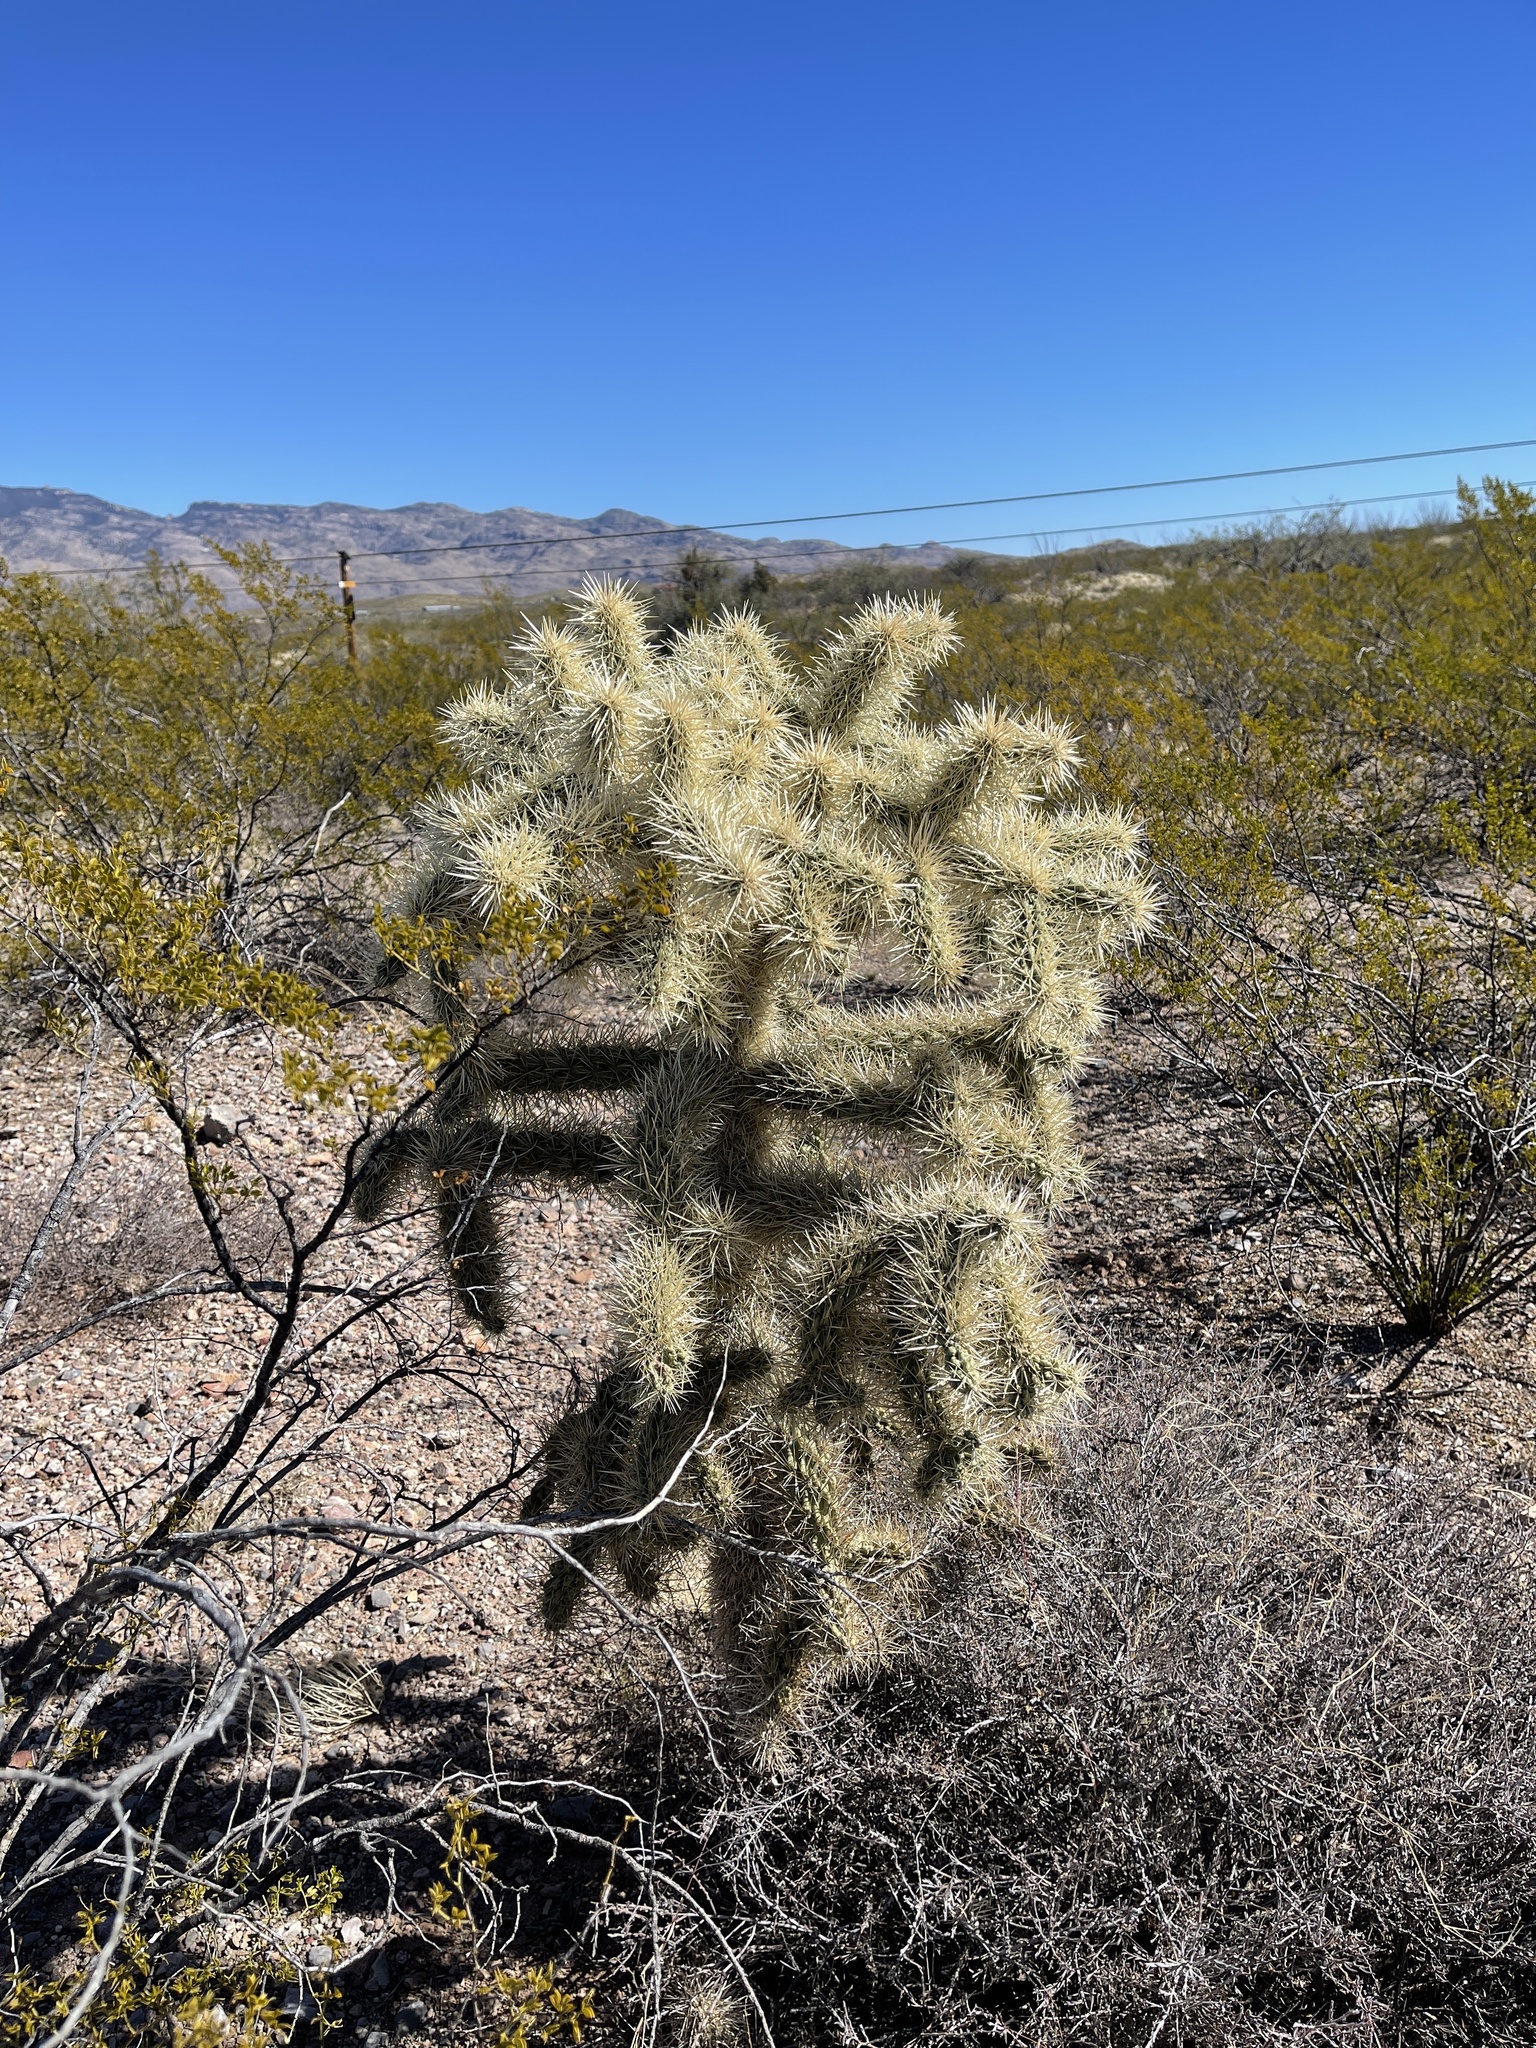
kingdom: Plantae
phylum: Tracheophyta
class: Magnoliopsida
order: Caryophyllales
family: Cactaceae
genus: Cylindropuntia
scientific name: Cylindropuntia fulgida
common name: Jumping cholla
